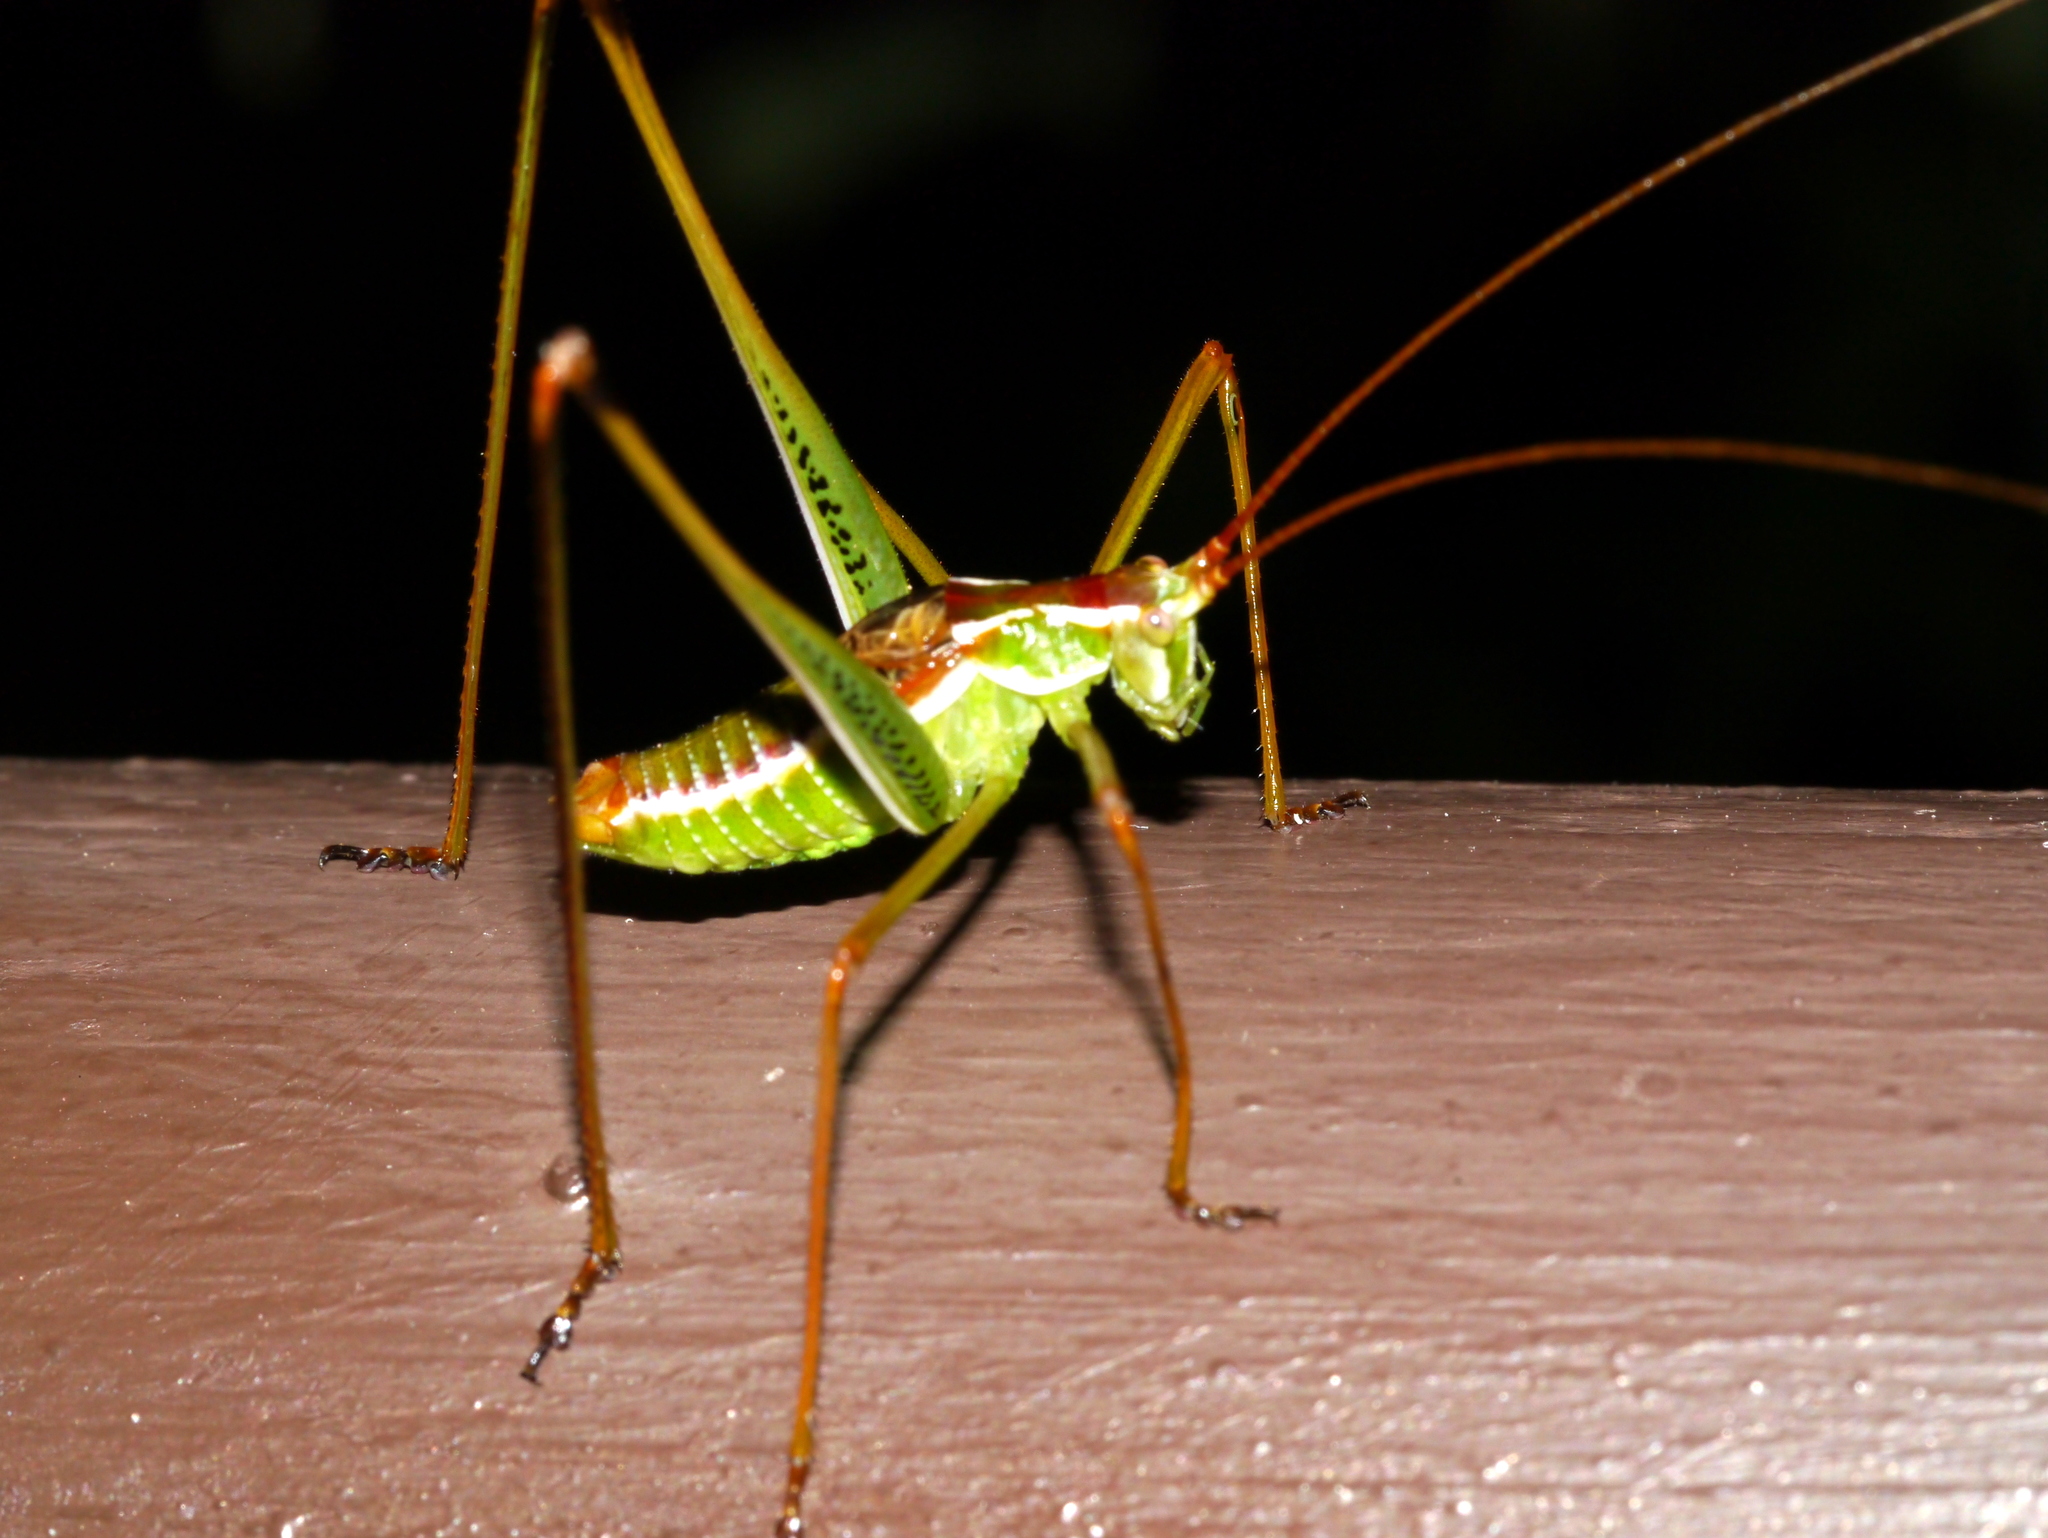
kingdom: Animalia
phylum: Arthropoda
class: Insecta
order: Orthoptera
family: Tettigoniidae
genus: Obolopteryx
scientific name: Obolopteryx brevihastata
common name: Common short-winged katydid
